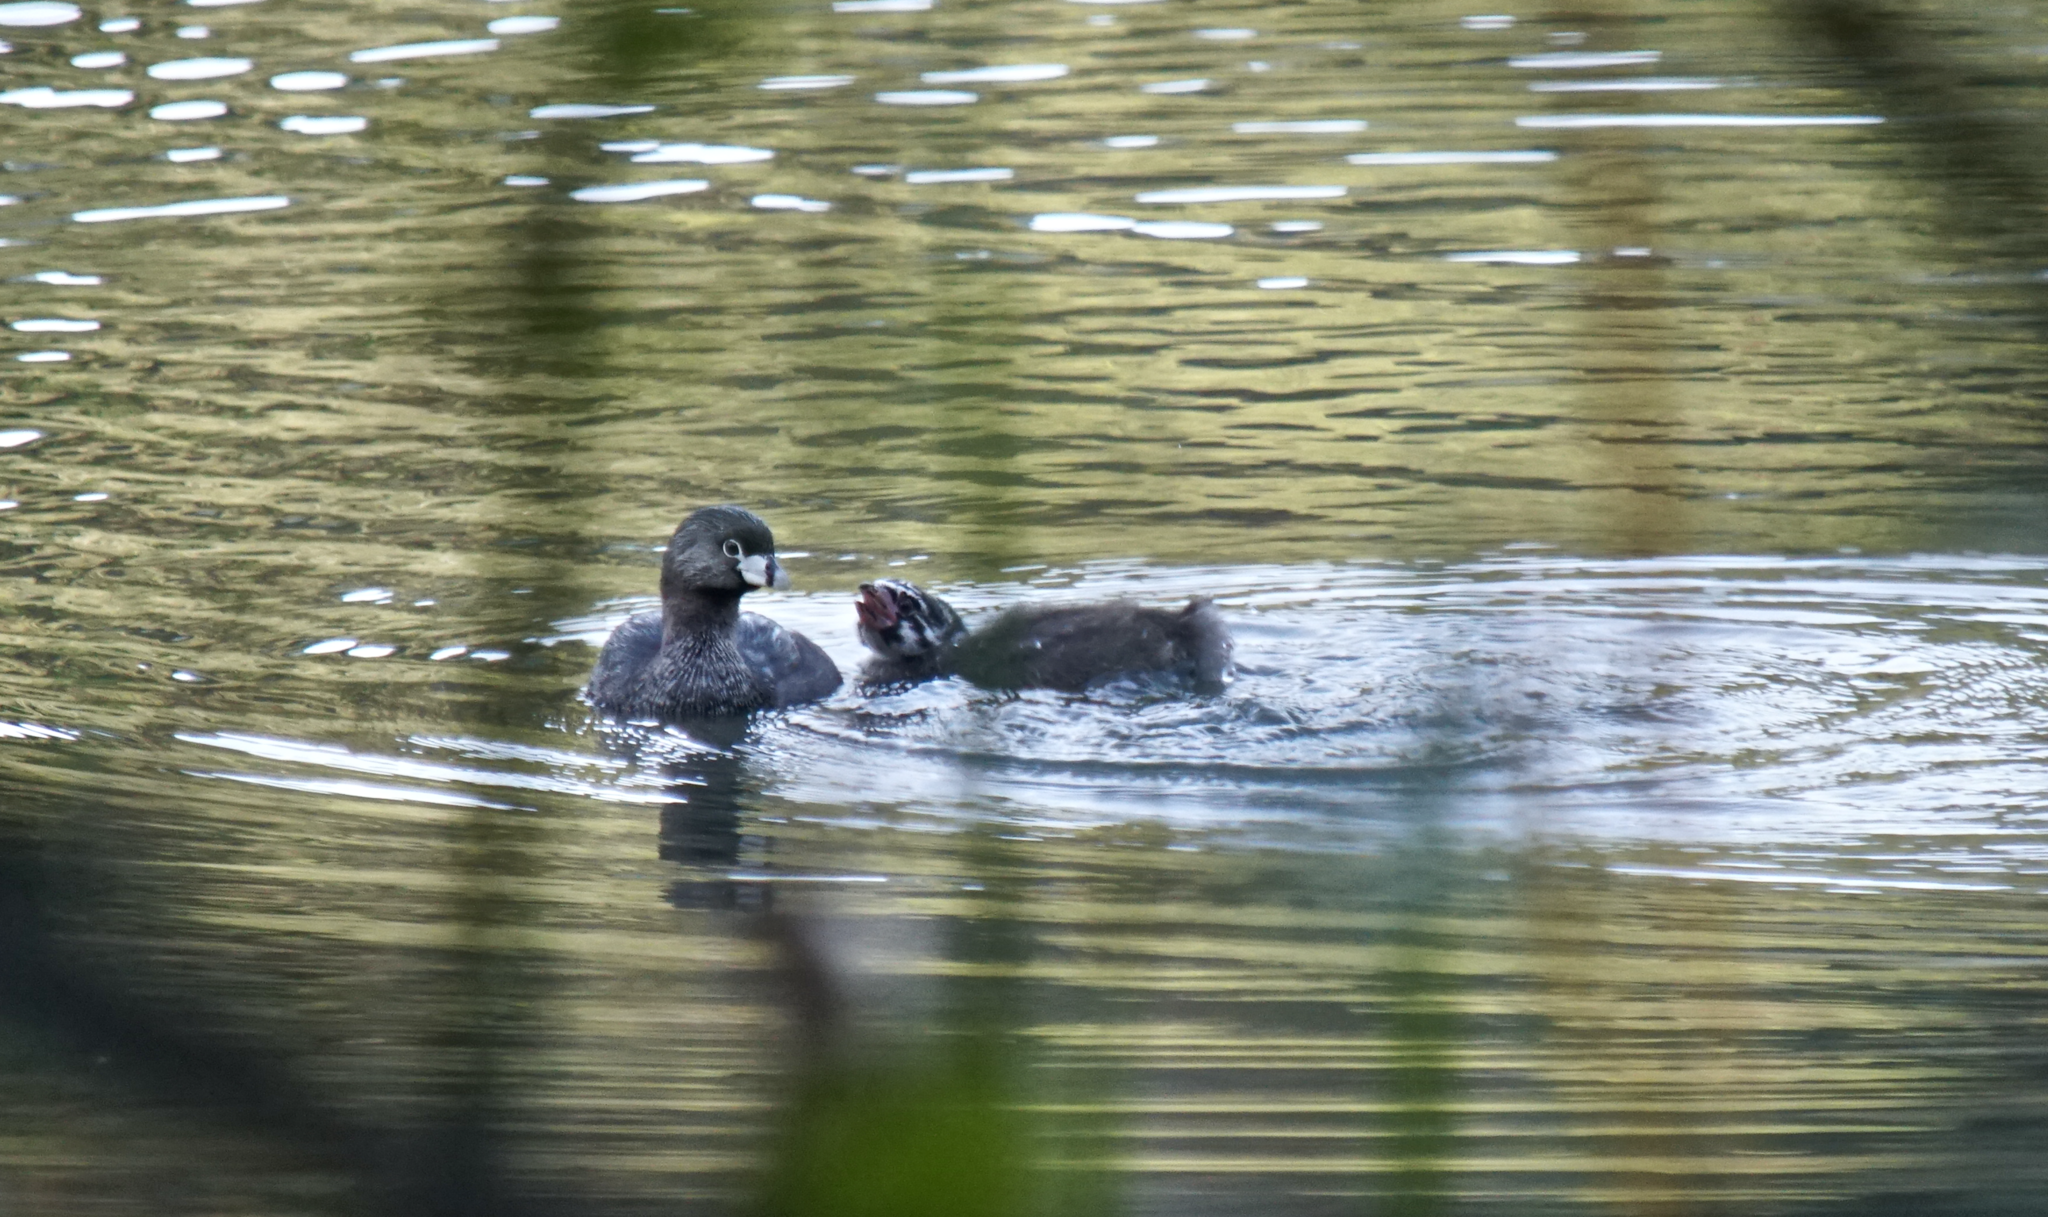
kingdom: Animalia
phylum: Chordata
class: Aves
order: Podicipediformes
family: Podicipedidae
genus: Podilymbus
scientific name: Podilymbus podiceps
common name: Pied-billed grebe
